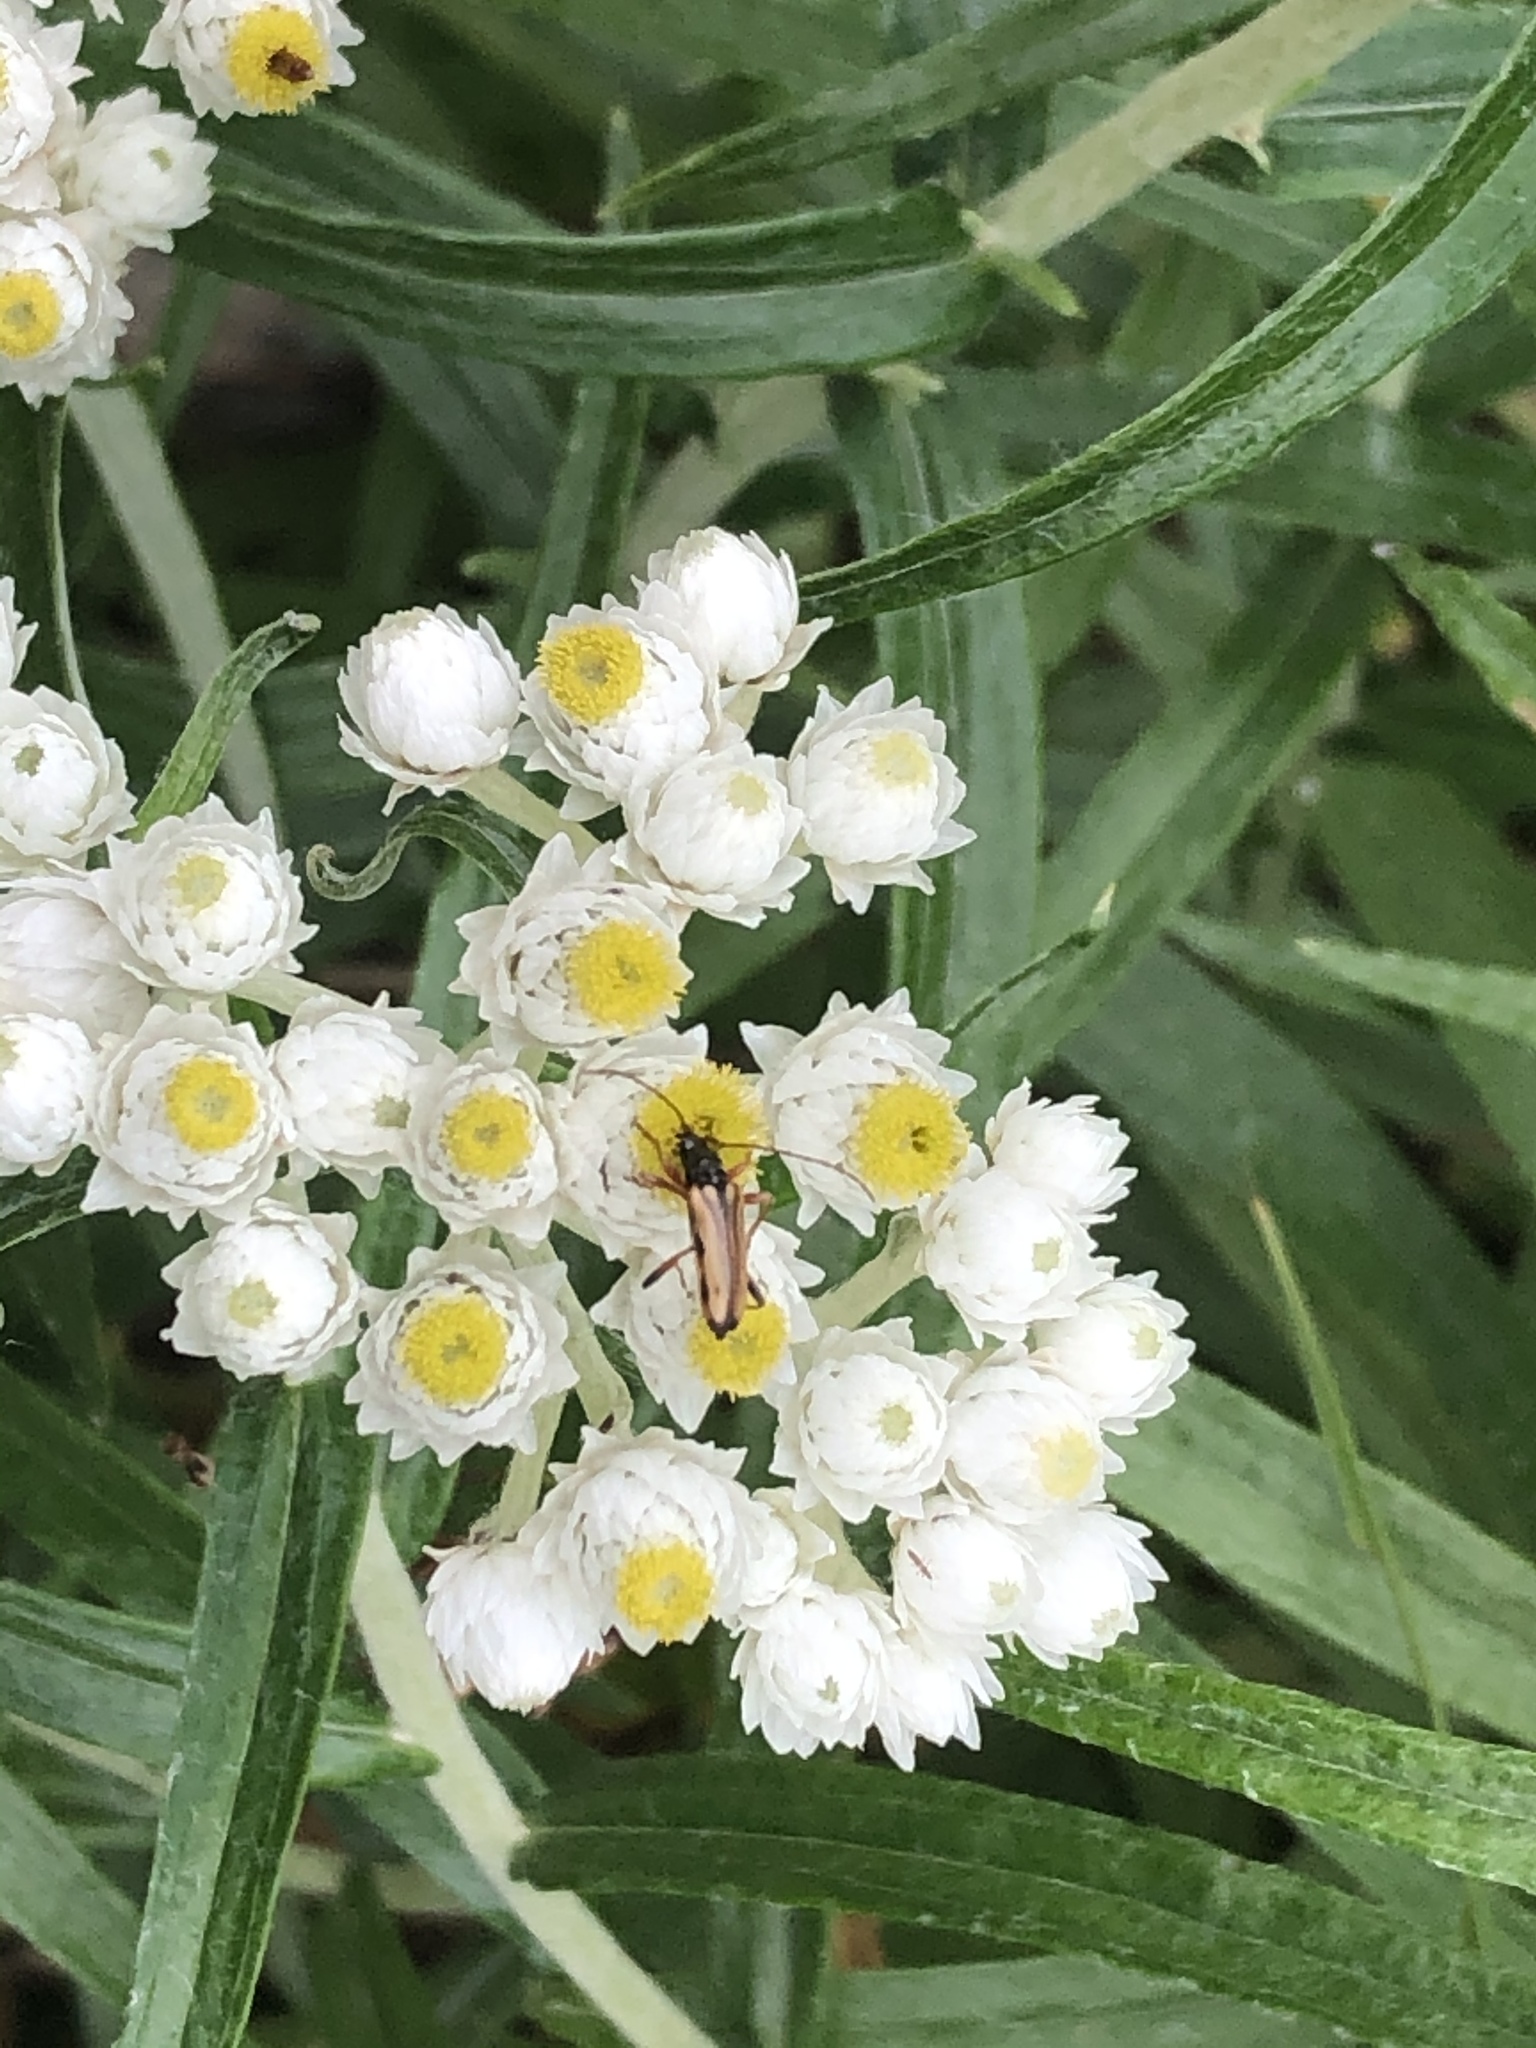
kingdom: Animalia
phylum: Arthropoda
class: Insecta
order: Coleoptera
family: Cerambycidae
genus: Pidonia
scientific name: Pidonia scripta
